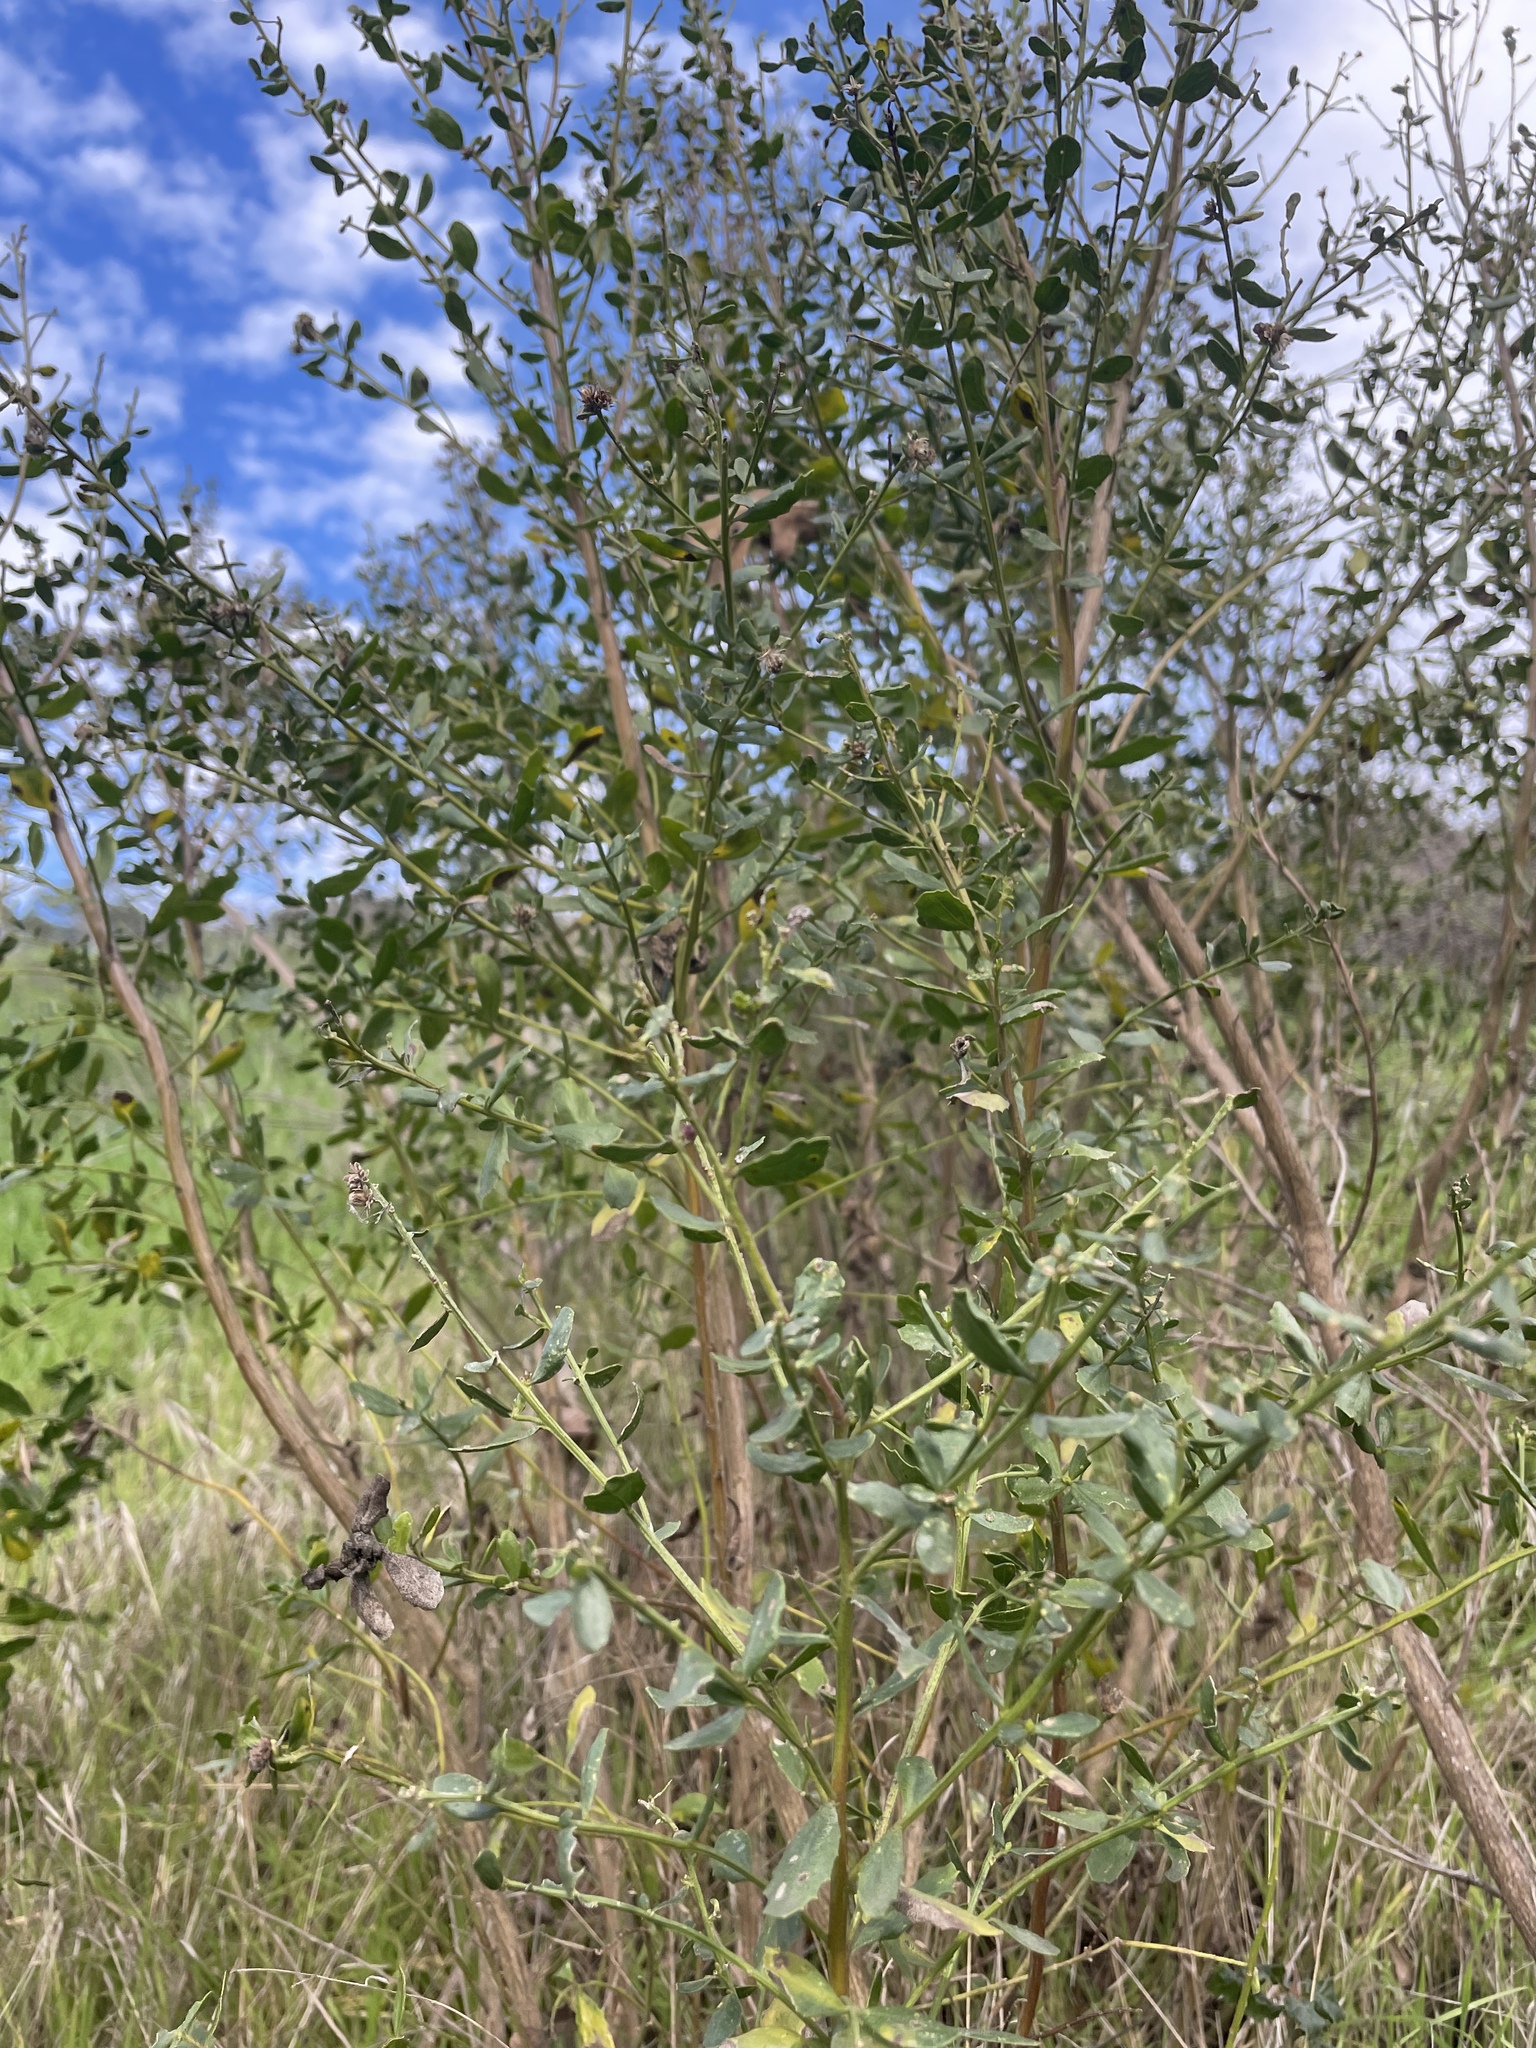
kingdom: Plantae
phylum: Tracheophyta
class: Magnoliopsida
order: Asterales
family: Asteraceae
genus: Baccharis
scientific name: Baccharis pilularis
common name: Coyotebrush
